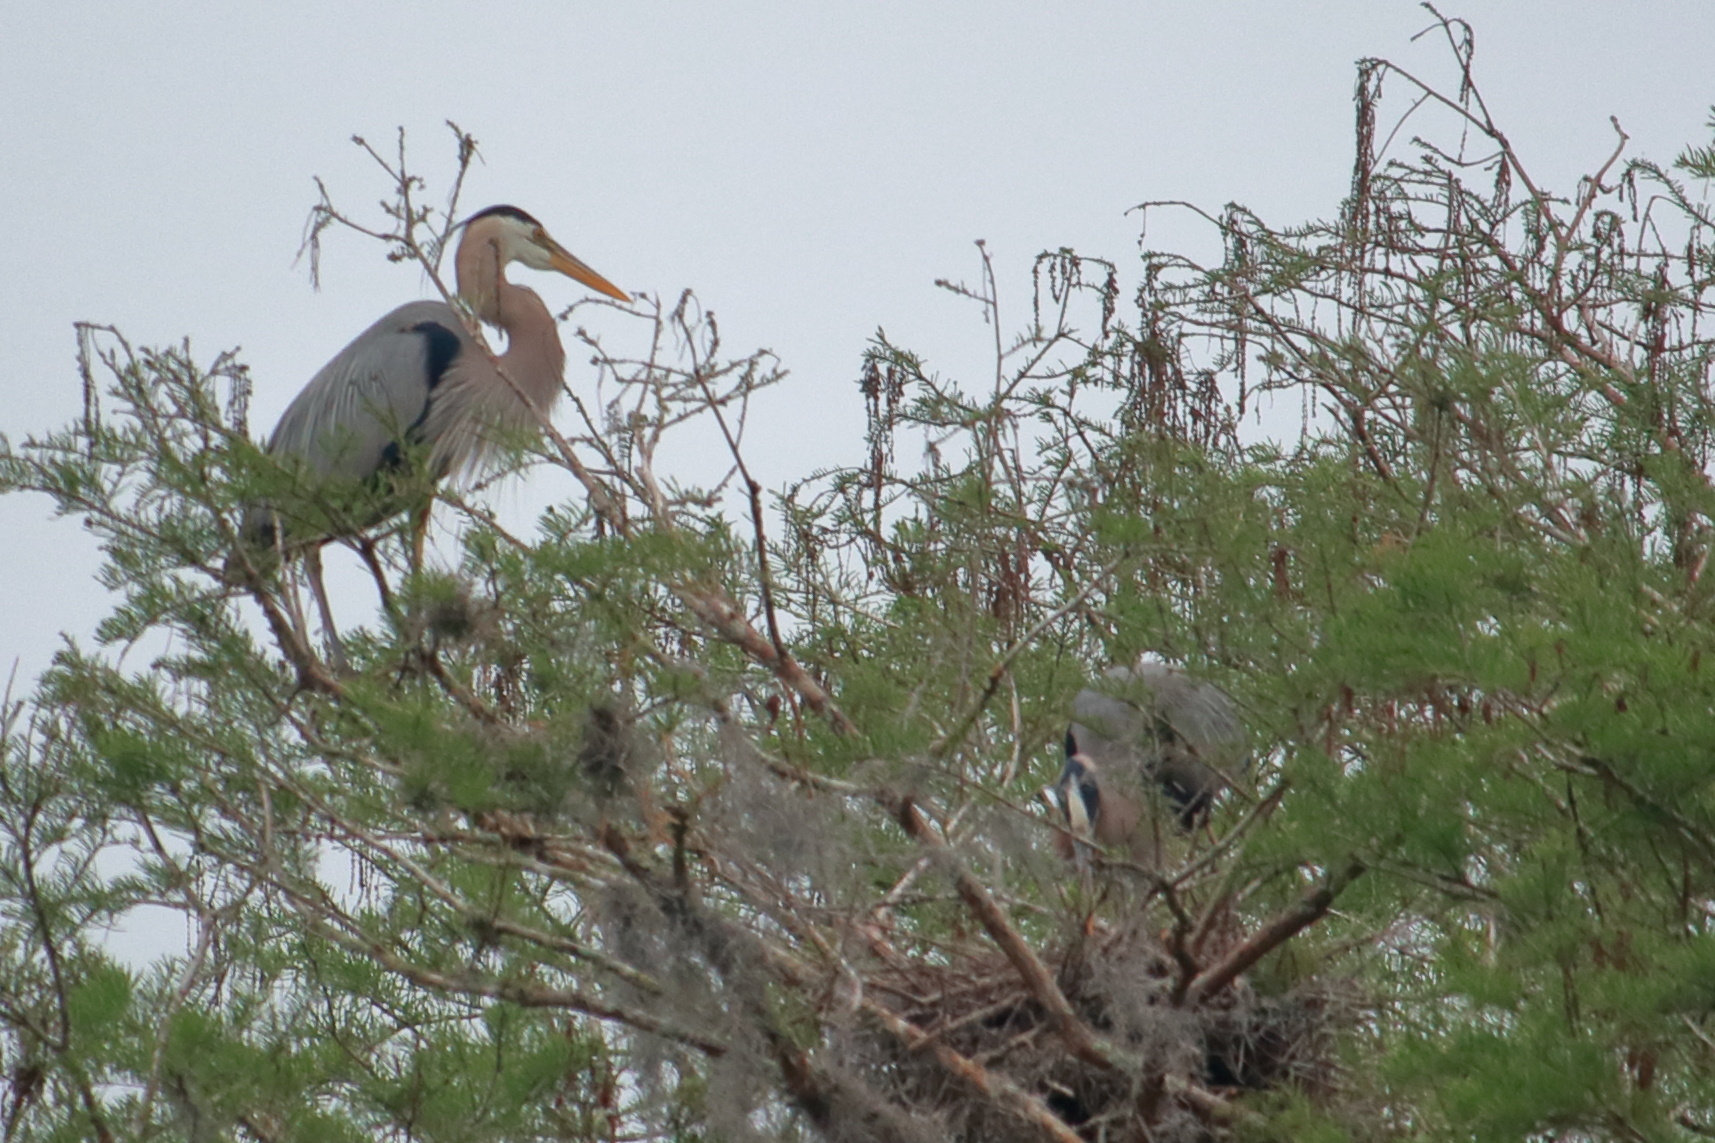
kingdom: Animalia
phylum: Chordata
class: Aves
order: Pelecaniformes
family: Ardeidae
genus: Ardea
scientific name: Ardea herodias
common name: Great blue heron
